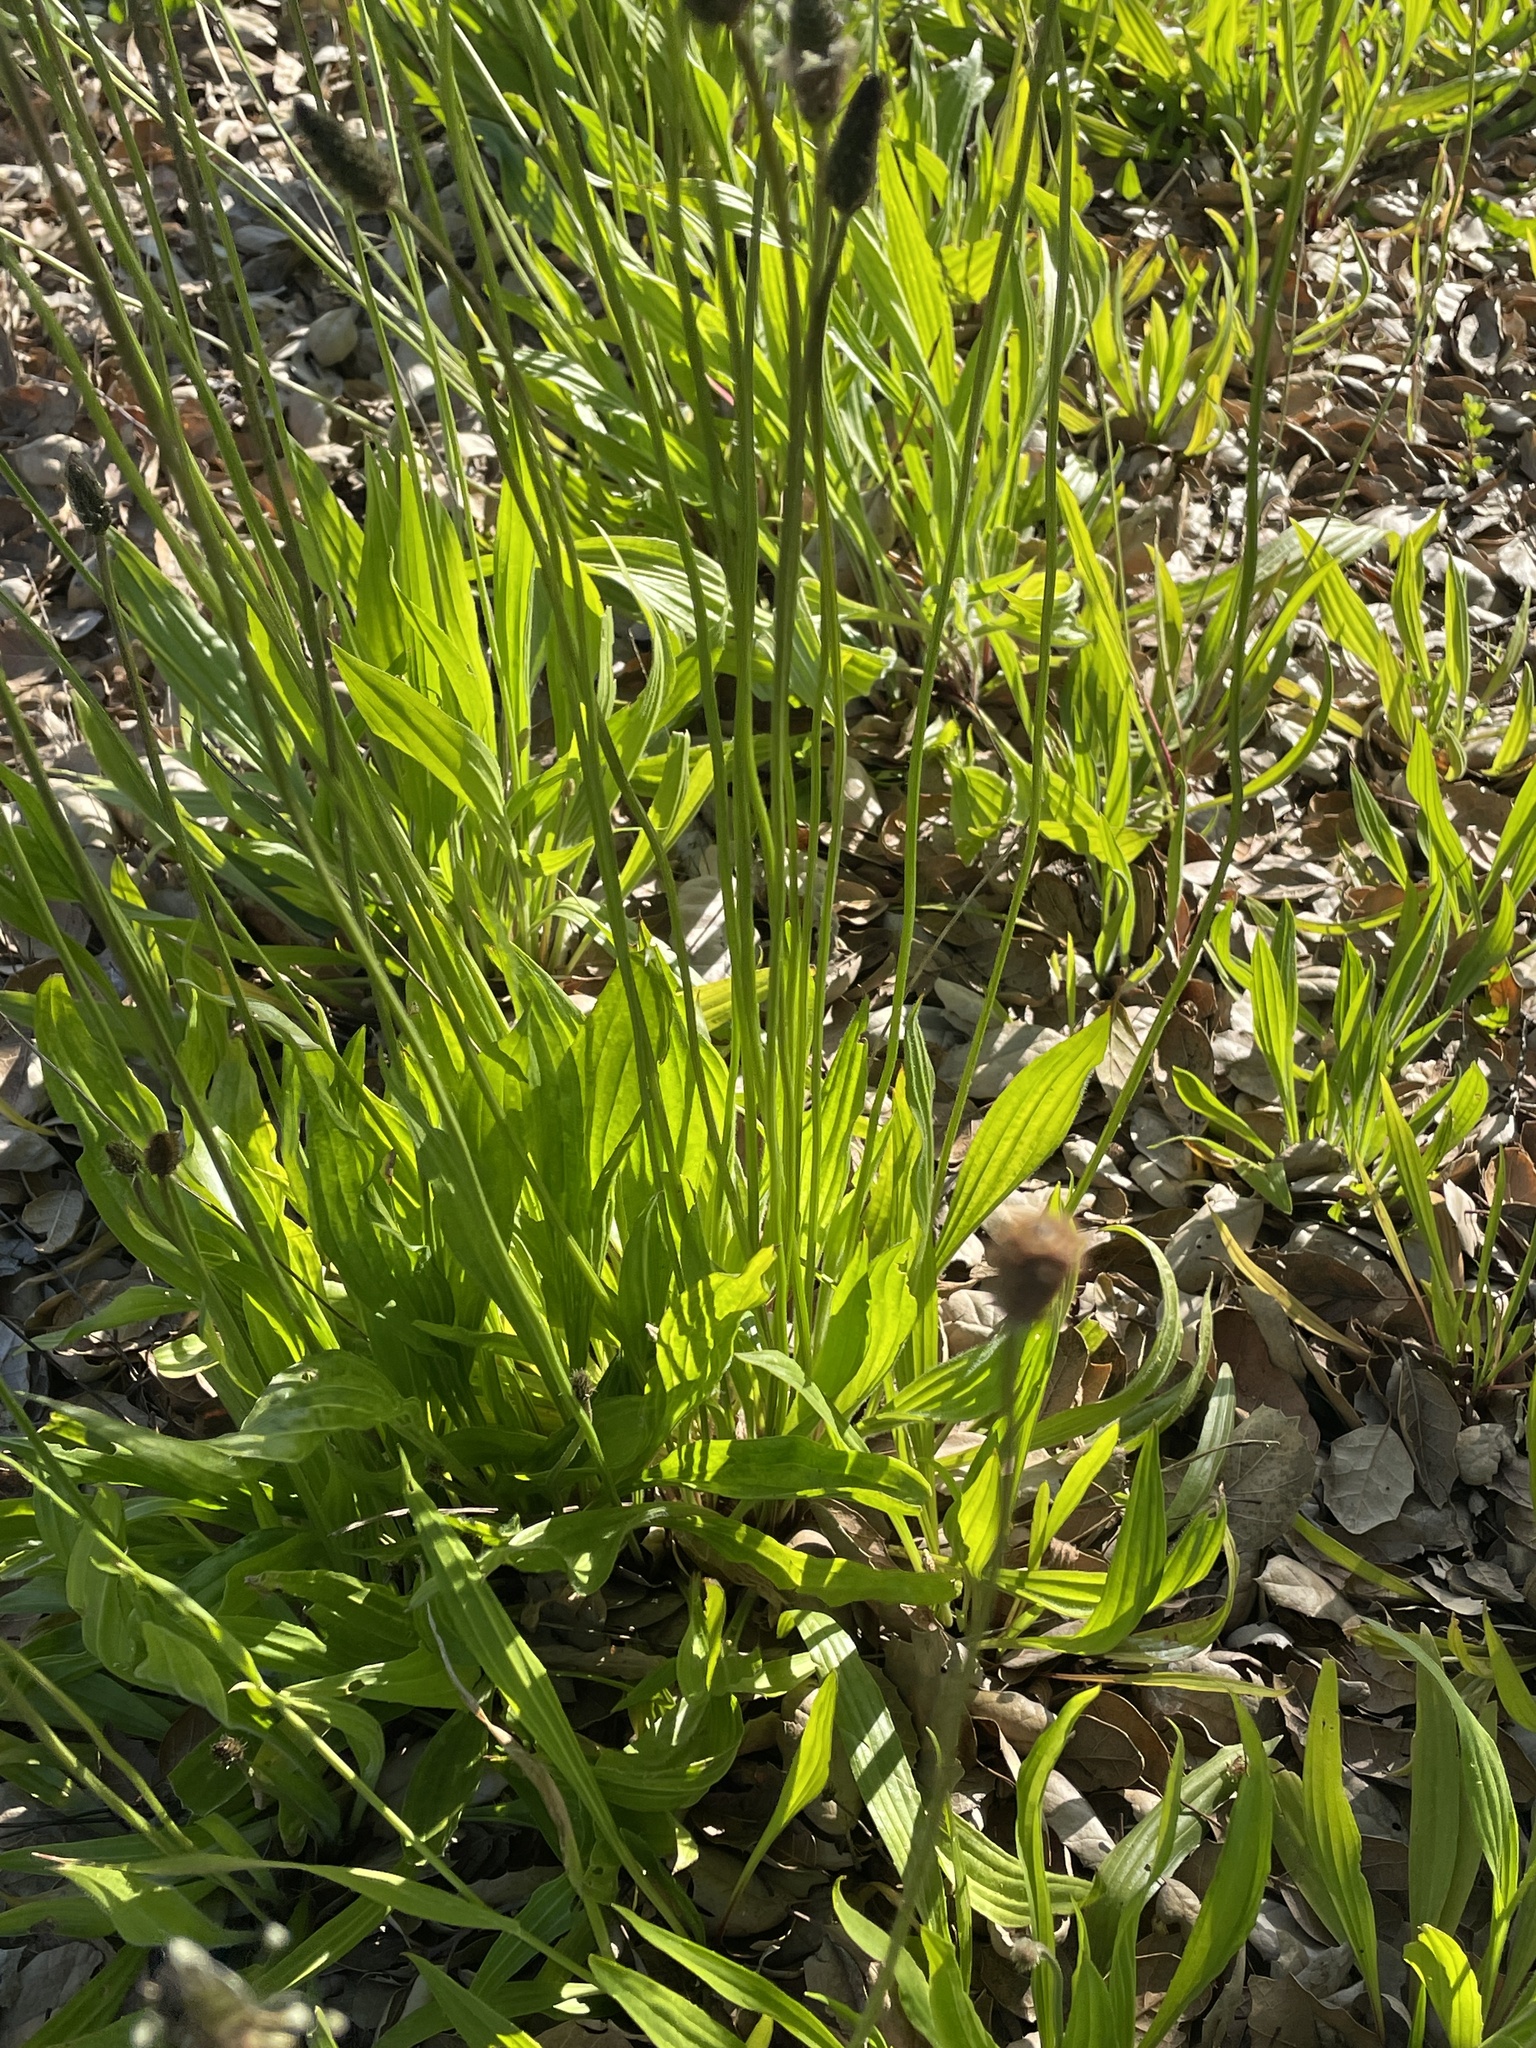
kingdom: Plantae
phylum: Tracheophyta
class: Magnoliopsida
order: Lamiales
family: Plantaginaceae
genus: Plantago
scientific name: Plantago lanceolata
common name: Ribwort plantain
